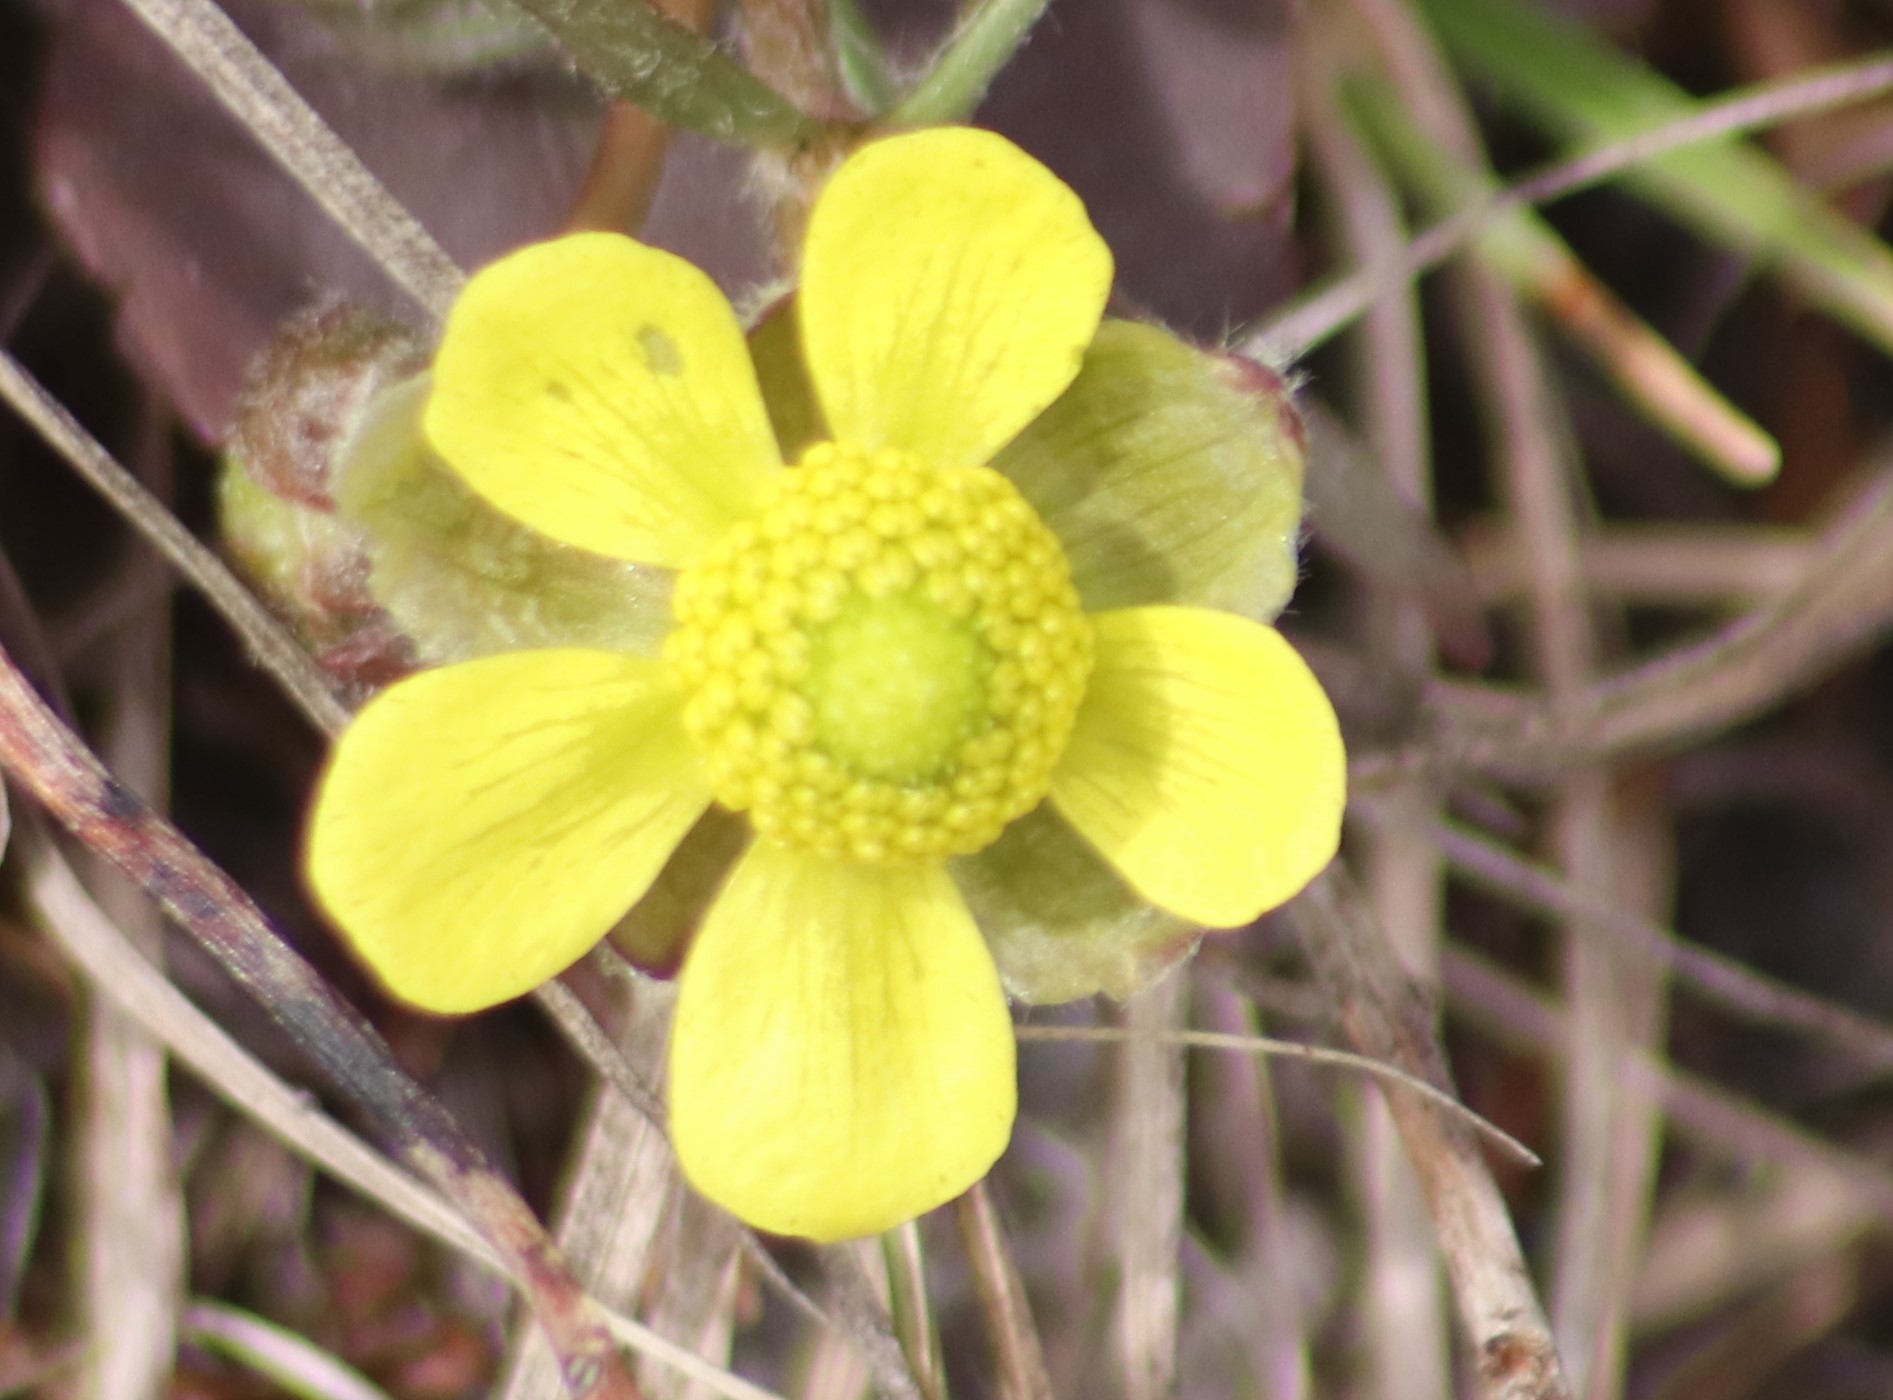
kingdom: Plantae
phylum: Tracheophyta
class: Magnoliopsida
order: Ranunculales
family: Ranunculaceae
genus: Ranunculus
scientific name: Ranunculus rhomboideus
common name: Prairie buttercup
